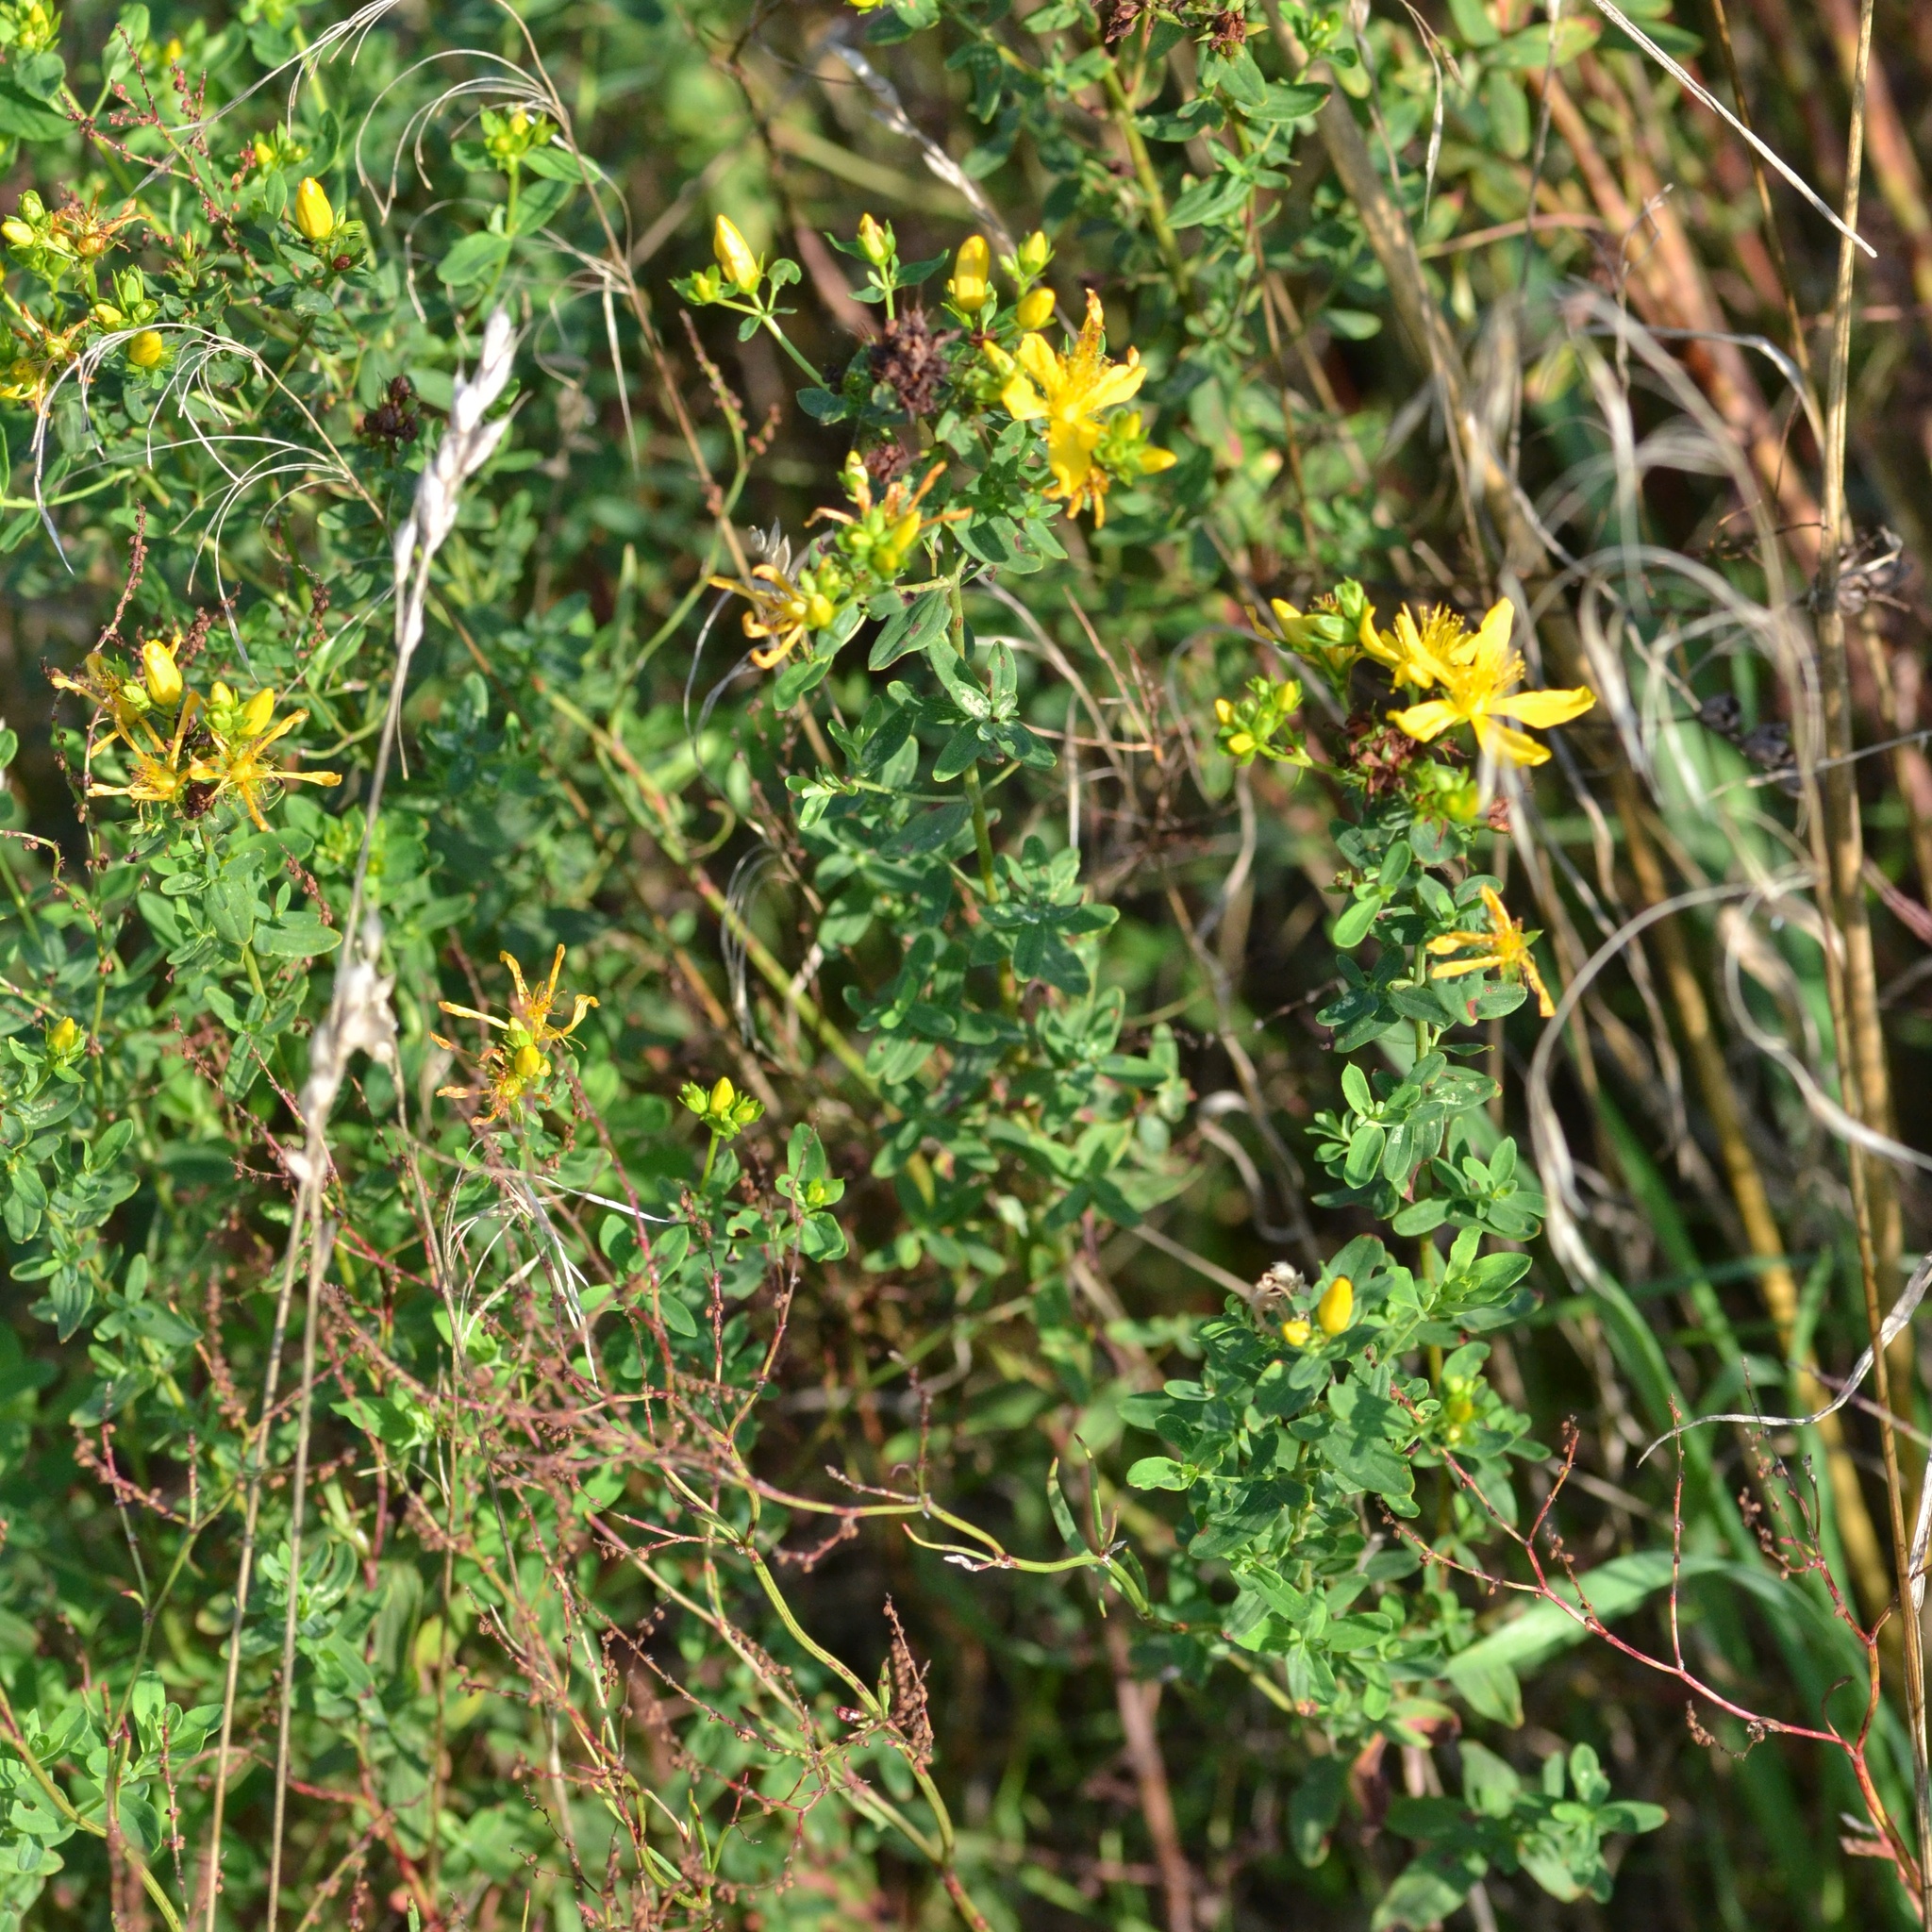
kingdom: Plantae
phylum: Tracheophyta
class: Magnoliopsida
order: Malpighiales
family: Hypericaceae
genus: Hypericum
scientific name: Hypericum perforatum
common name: Common st. johnswort
